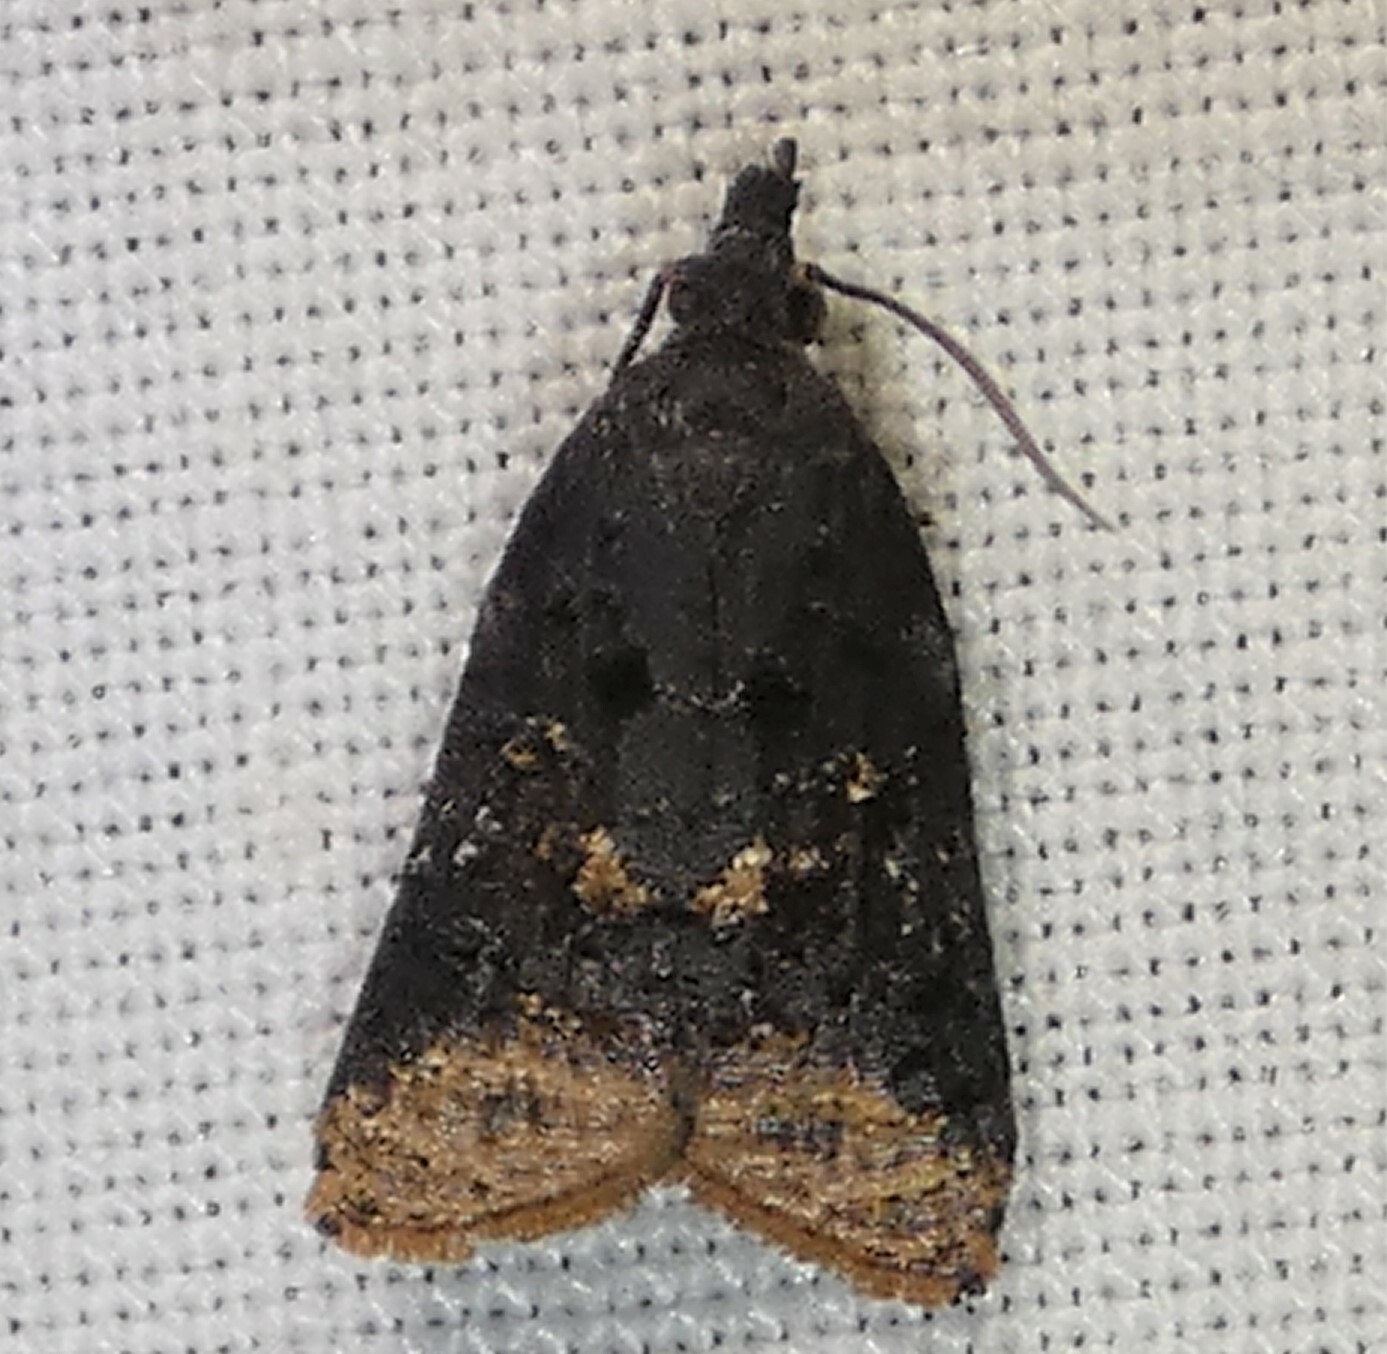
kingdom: Animalia
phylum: Arthropoda
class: Insecta
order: Lepidoptera
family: Tortricidae
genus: Platynota
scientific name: Platynota semiustana
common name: Singed platynota
